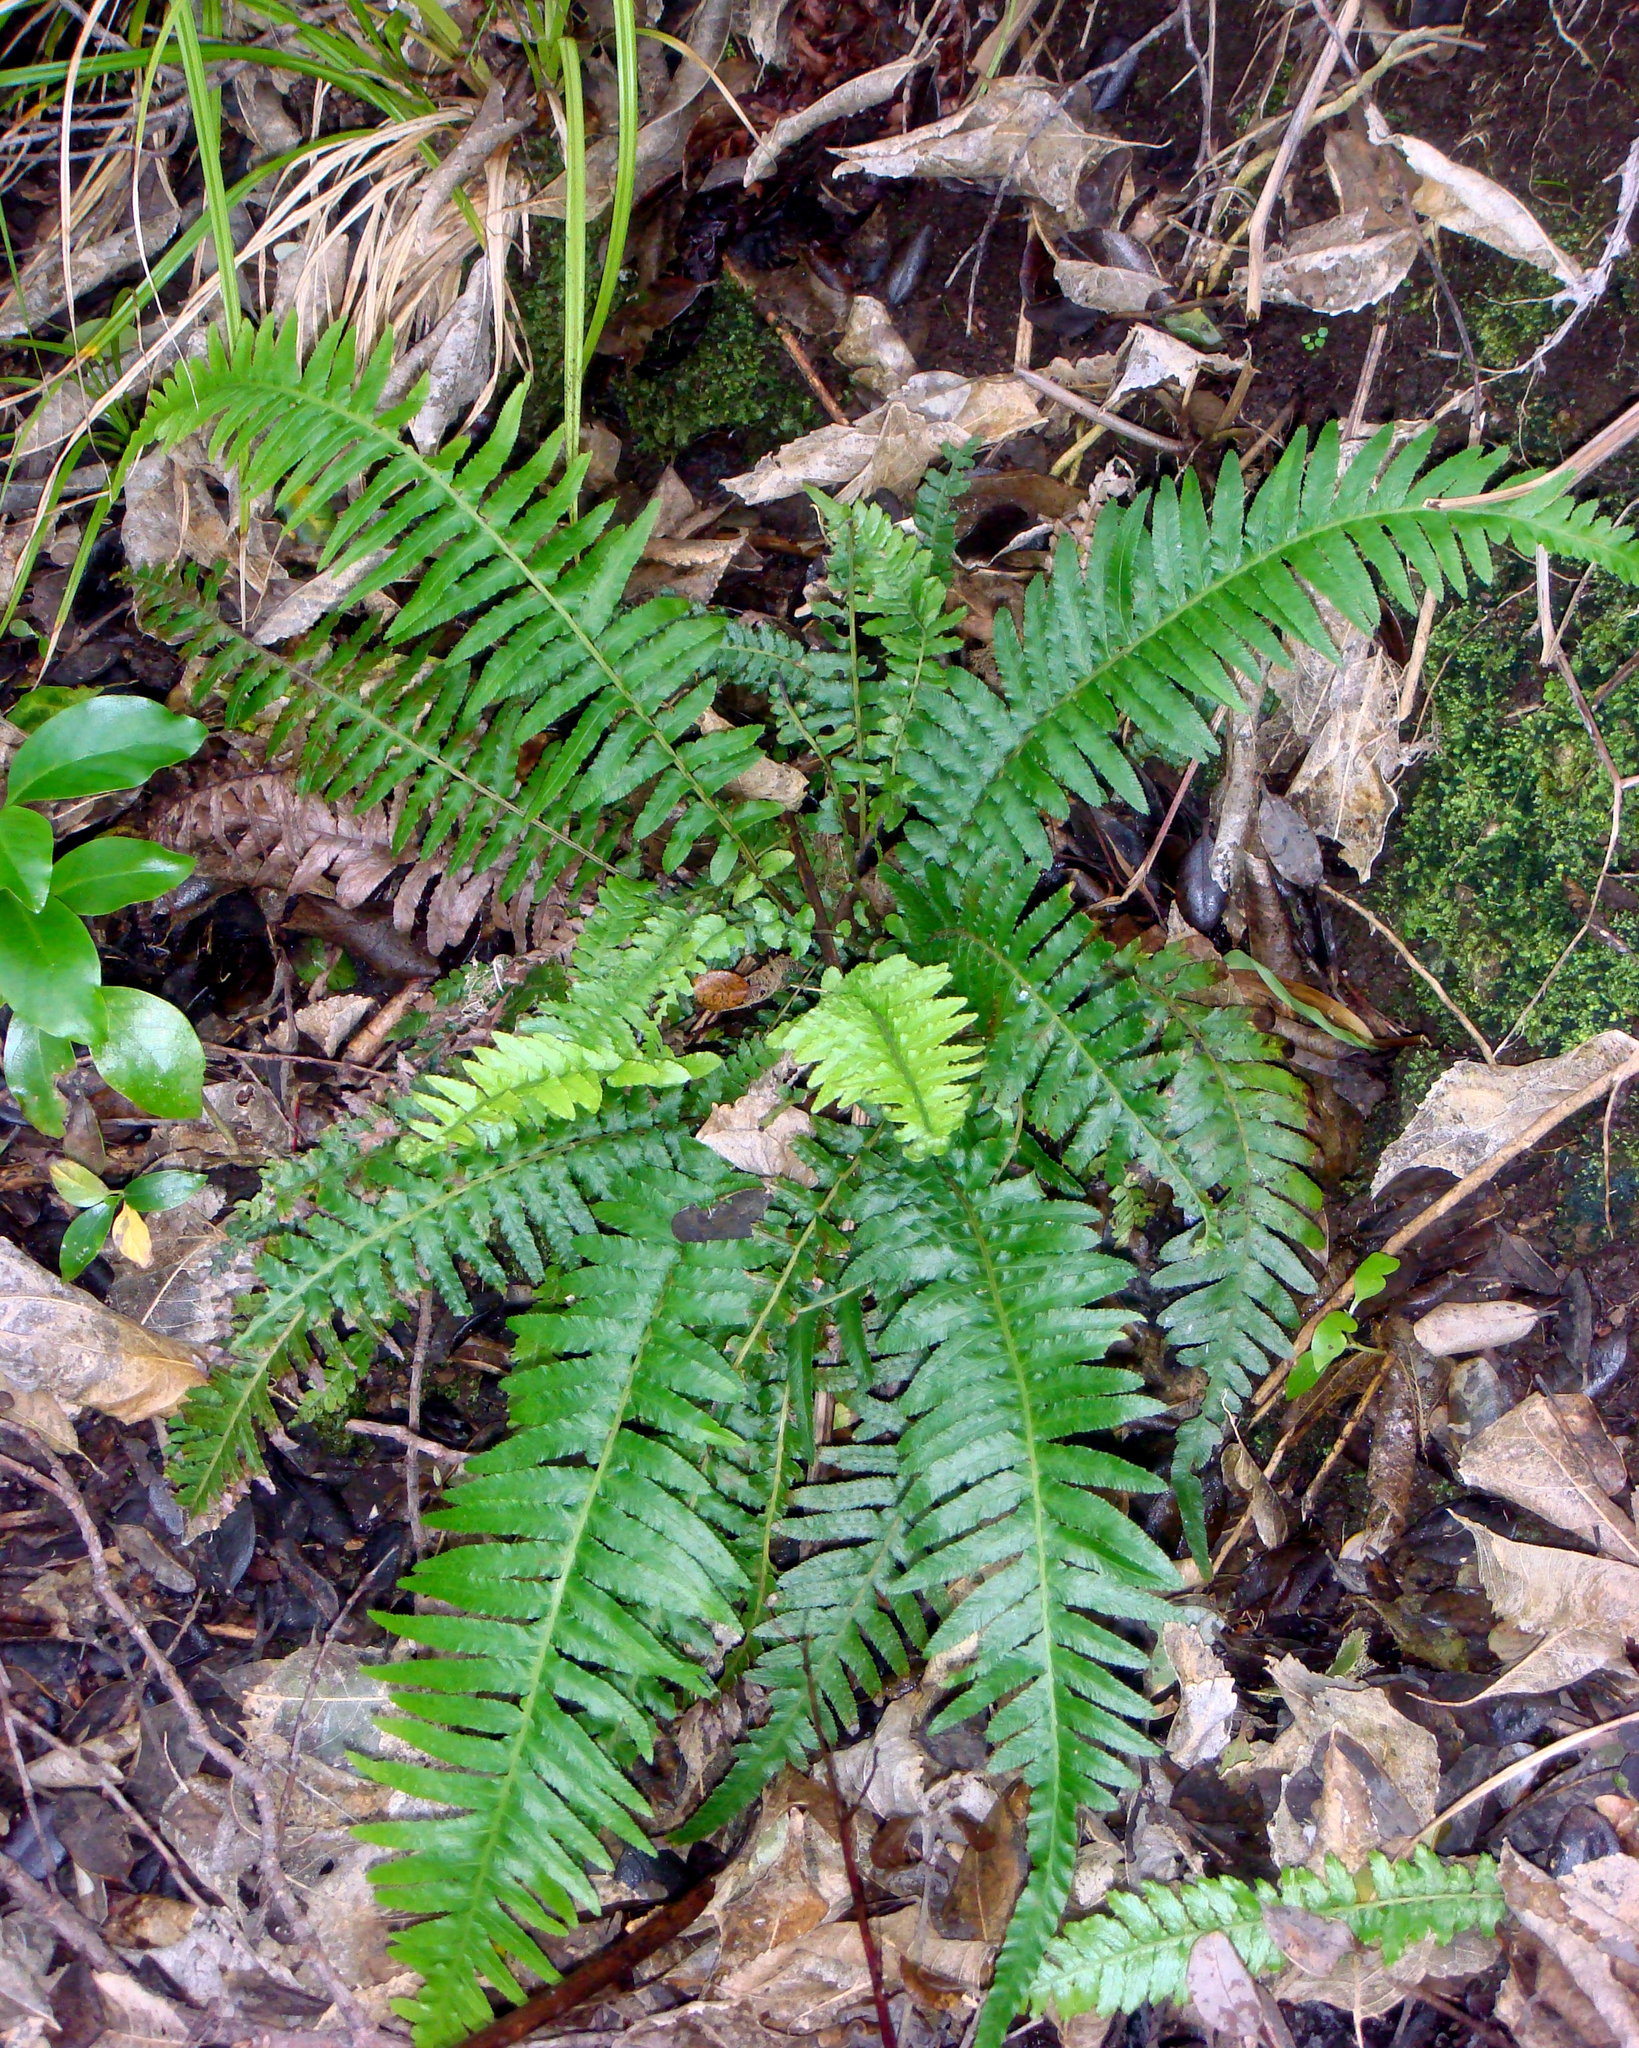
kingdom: Plantae
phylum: Tracheophyta
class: Polypodiopsida
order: Polypodiales
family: Blechnaceae
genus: Parablechnum
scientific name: Parablechnum milnei
